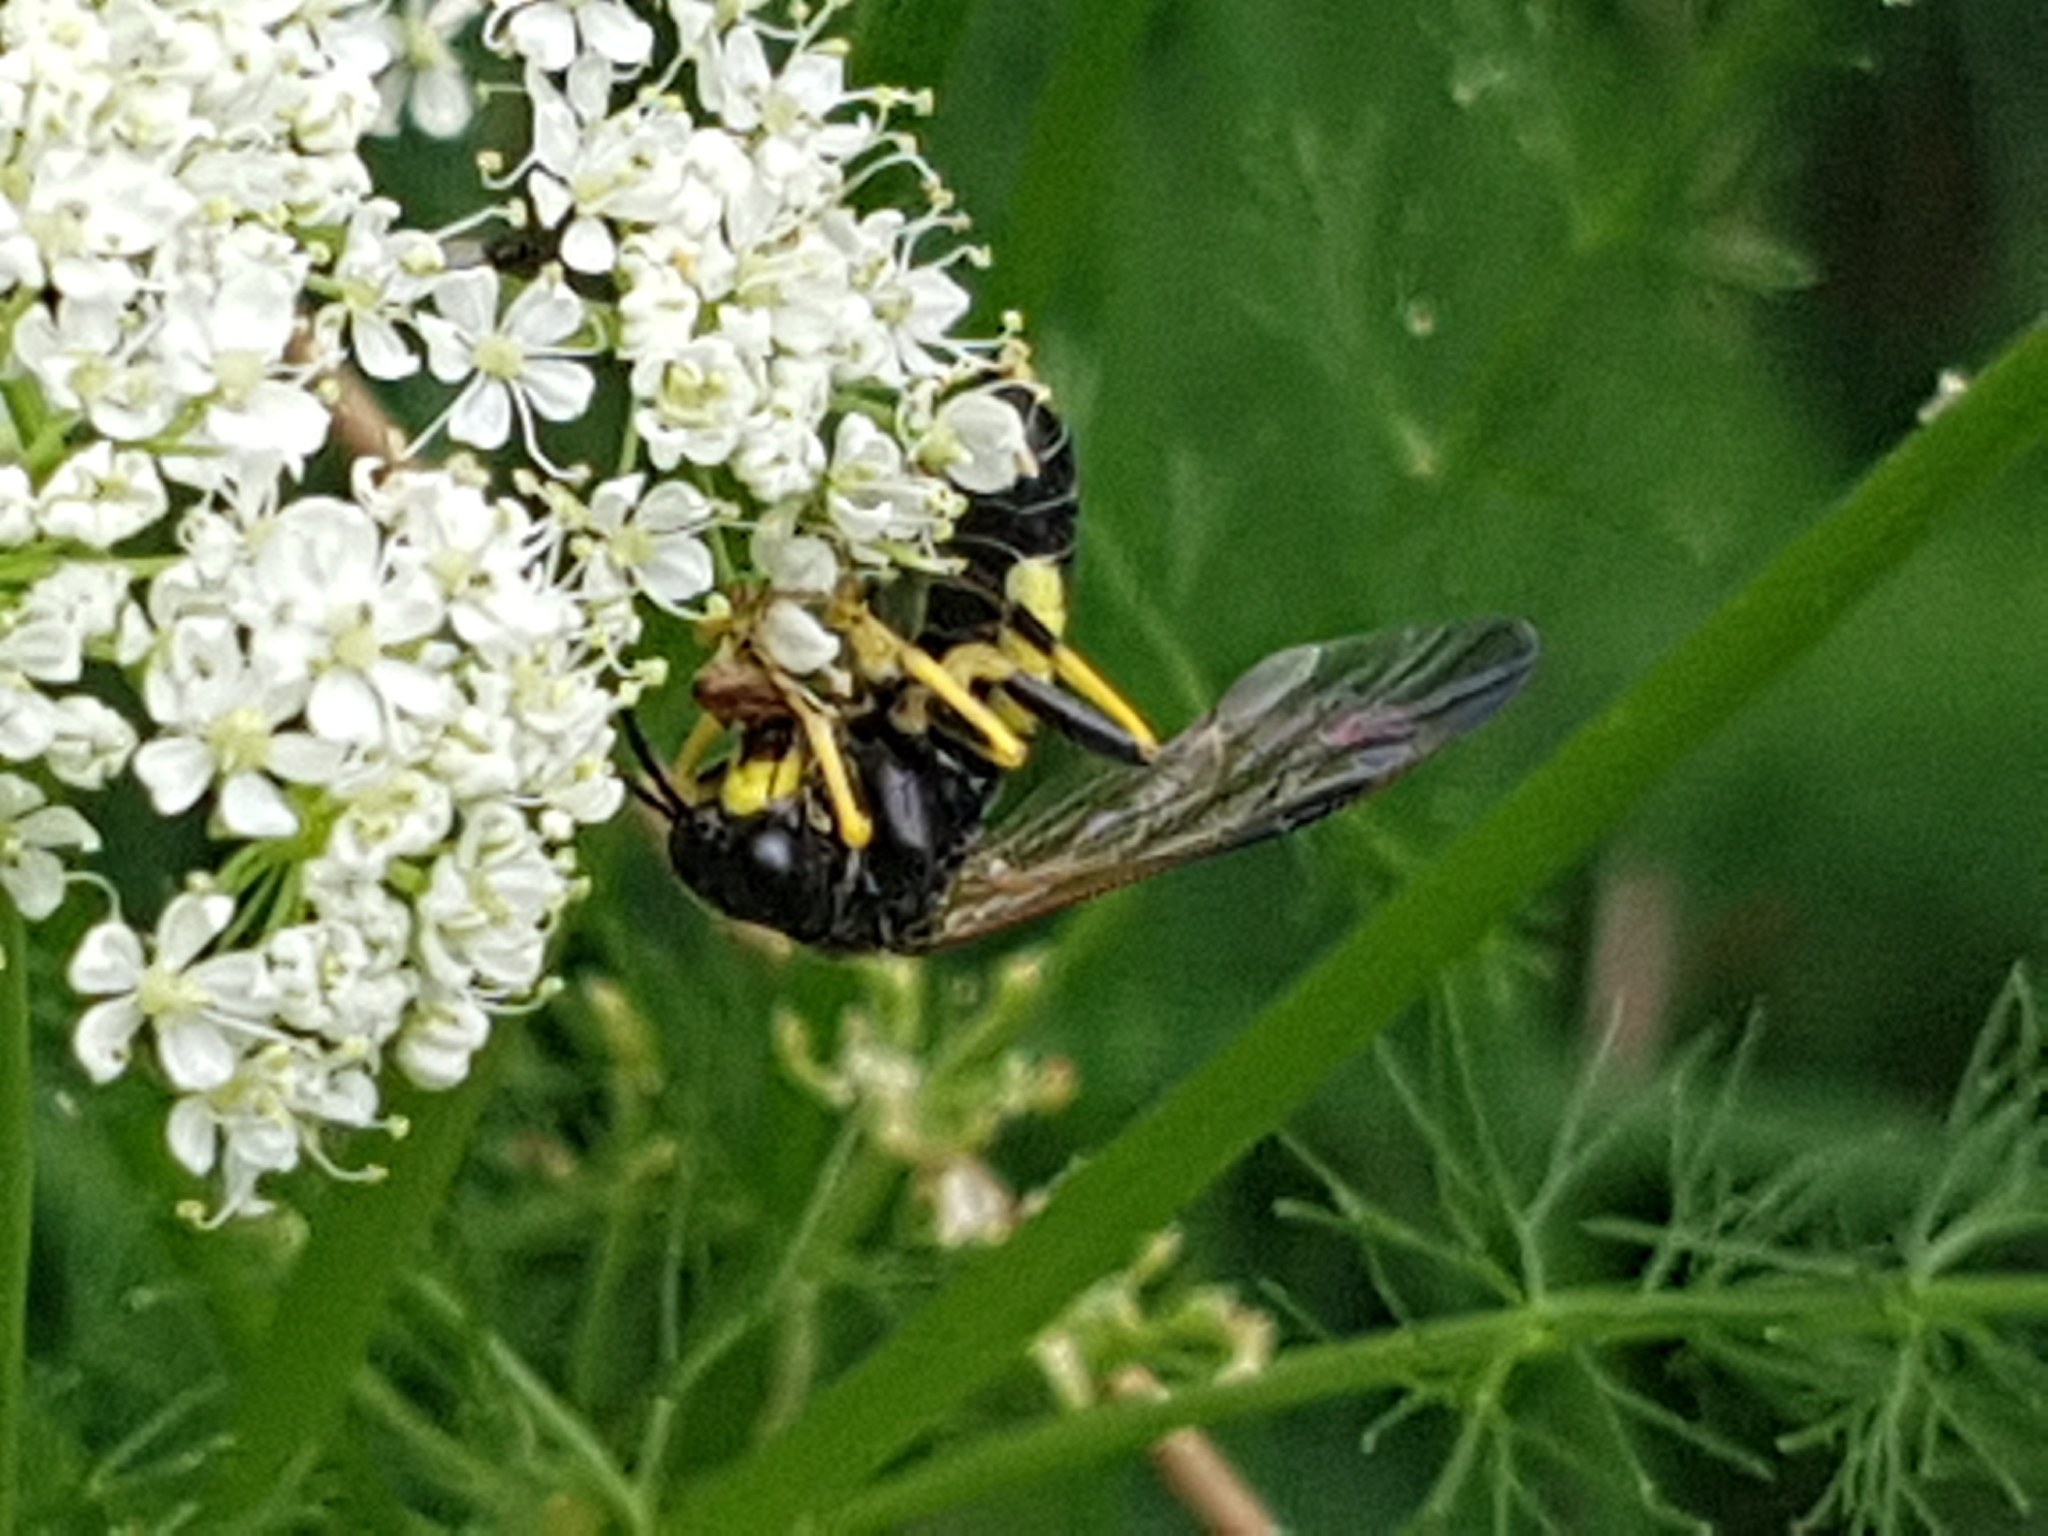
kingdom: Animalia
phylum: Arthropoda
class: Insecta
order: Hymenoptera
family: Tenthredinidae
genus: Tenthredo
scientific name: Tenthredo temula
